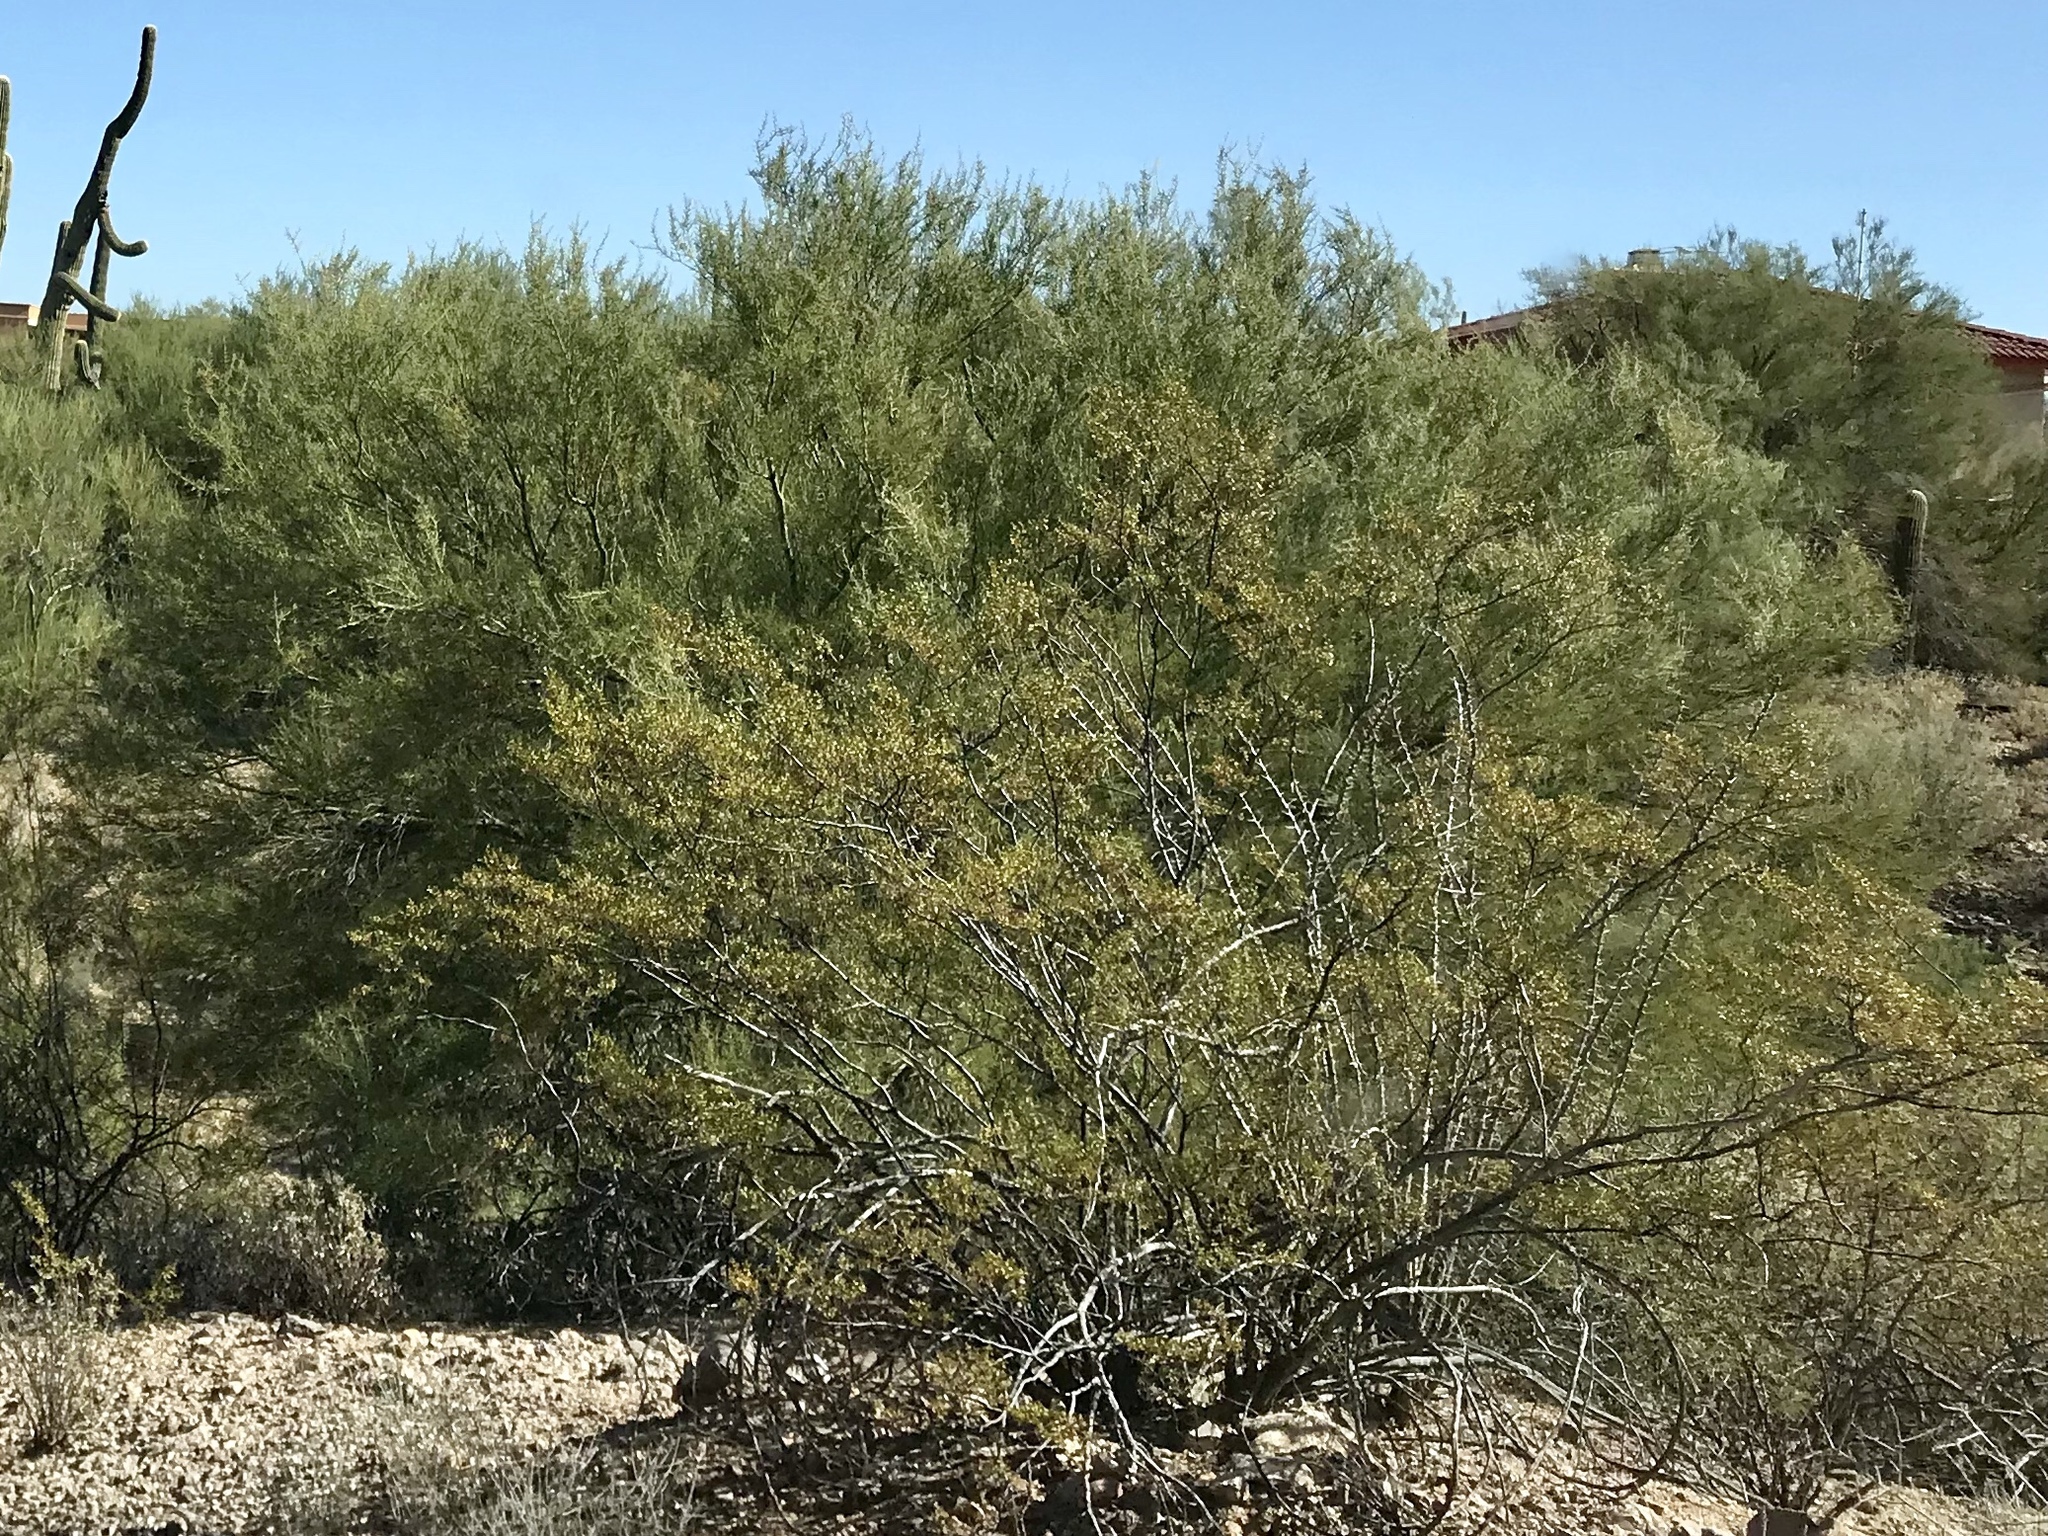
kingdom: Plantae
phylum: Tracheophyta
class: Magnoliopsida
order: Zygophyllales
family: Zygophyllaceae
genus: Larrea
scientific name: Larrea tridentata
